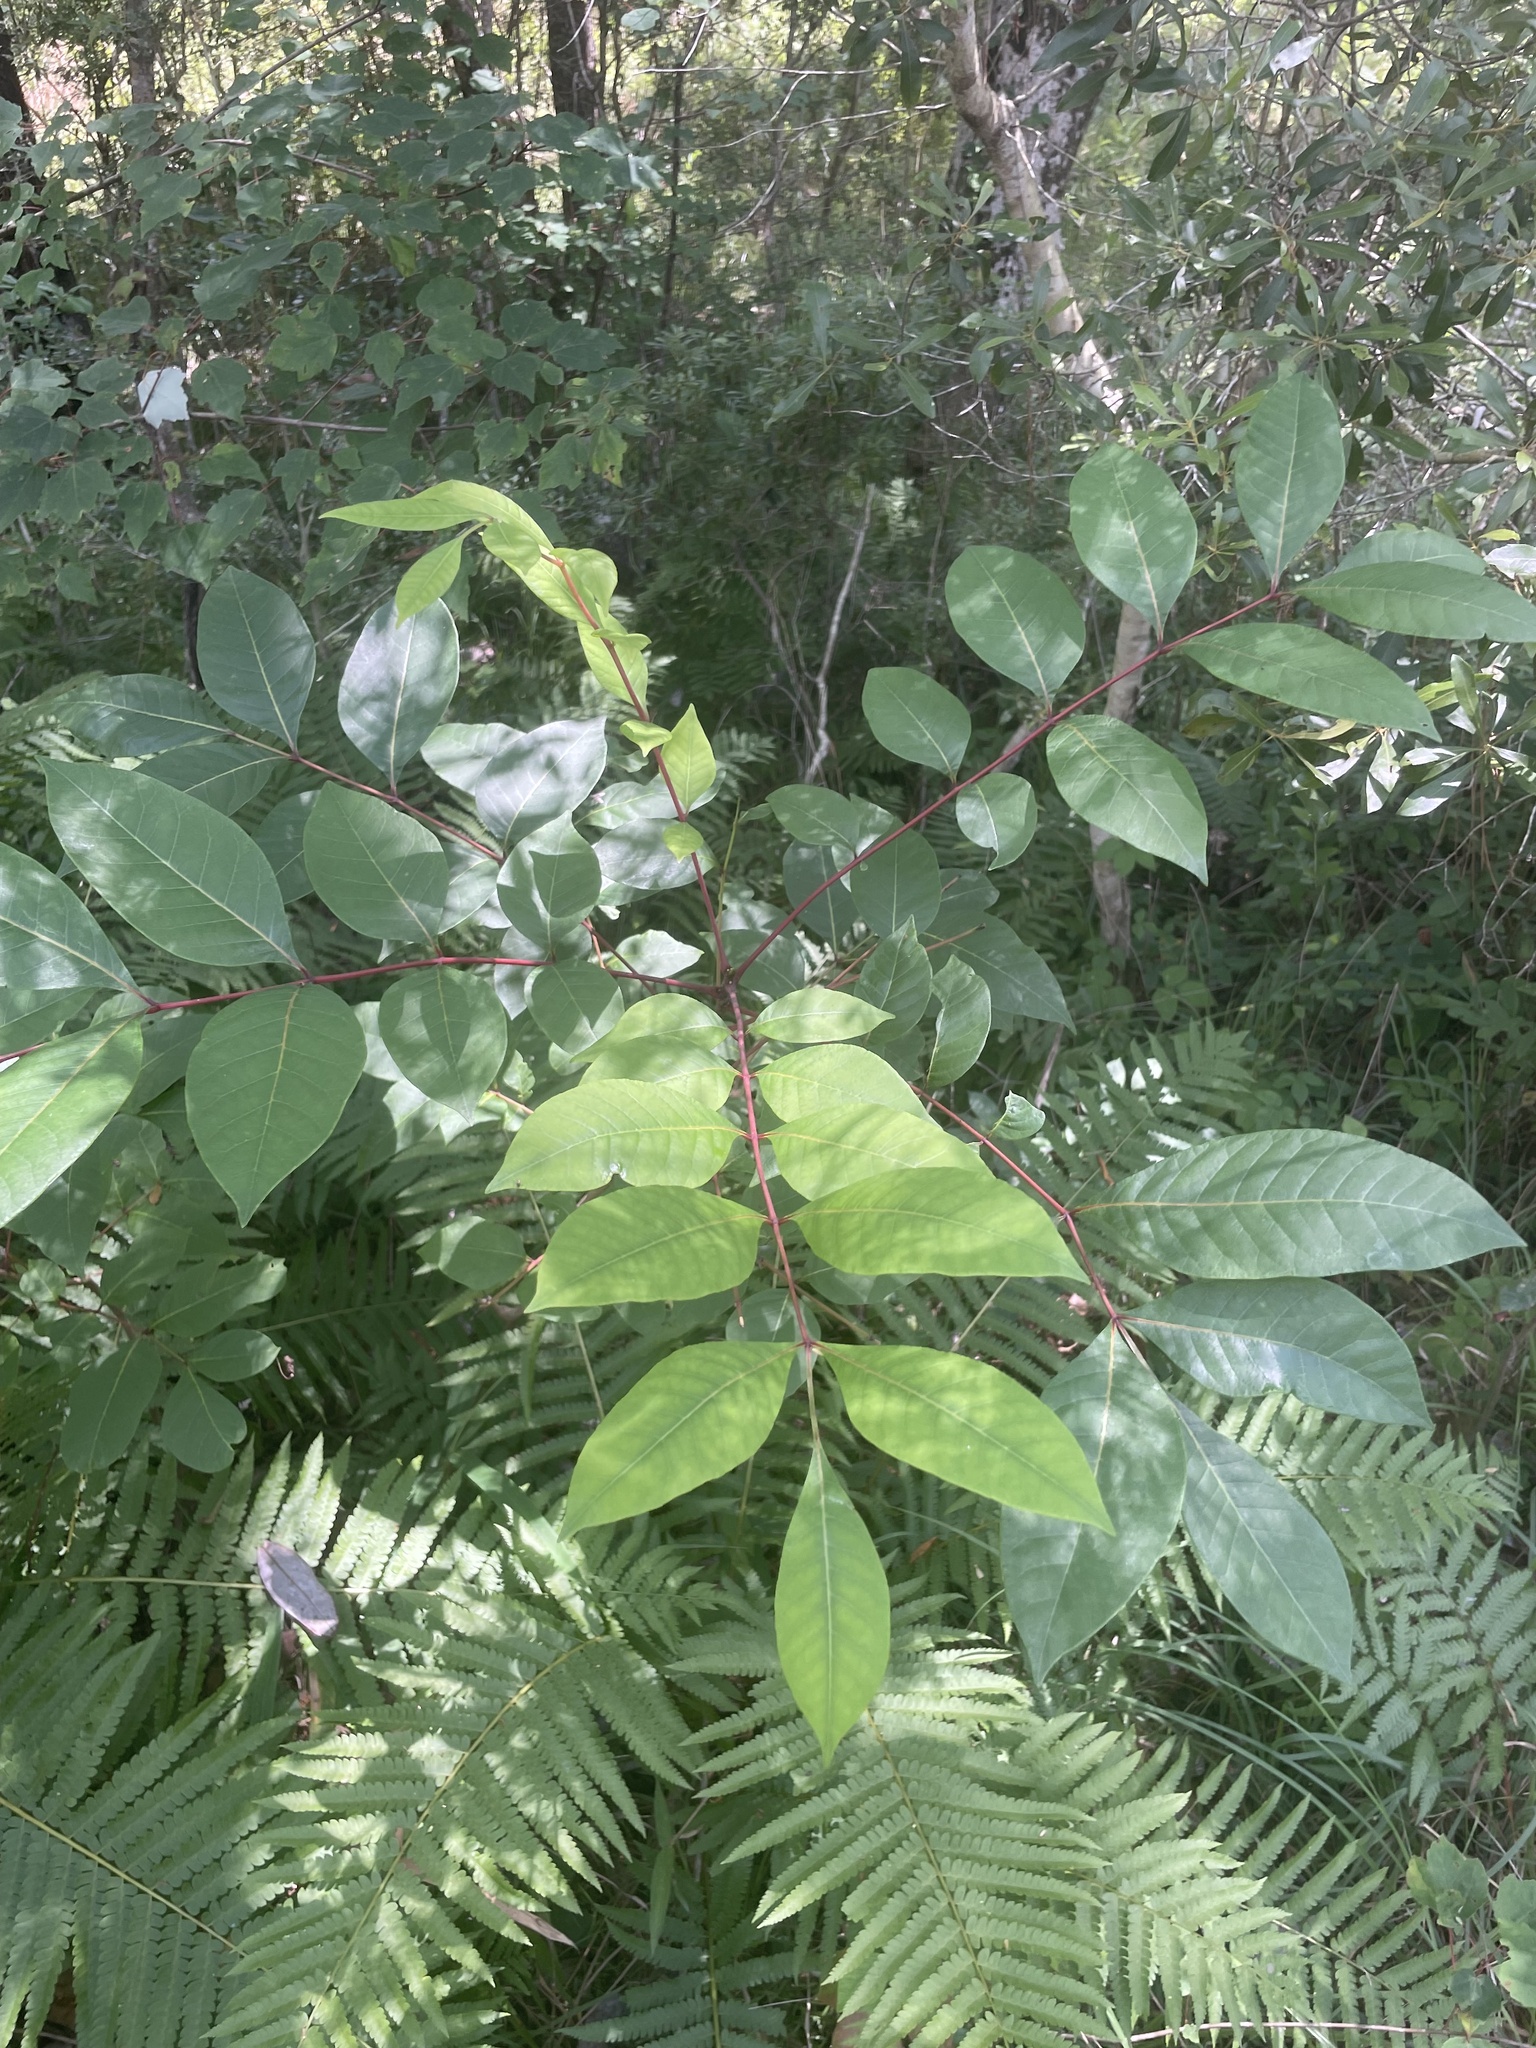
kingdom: Plantae
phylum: Tracheophyta
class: Magnoliopsida
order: Sapindales
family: Anacardiaceae
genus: Toxicodendron
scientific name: Toxicodendron vernix
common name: Poison sumac
